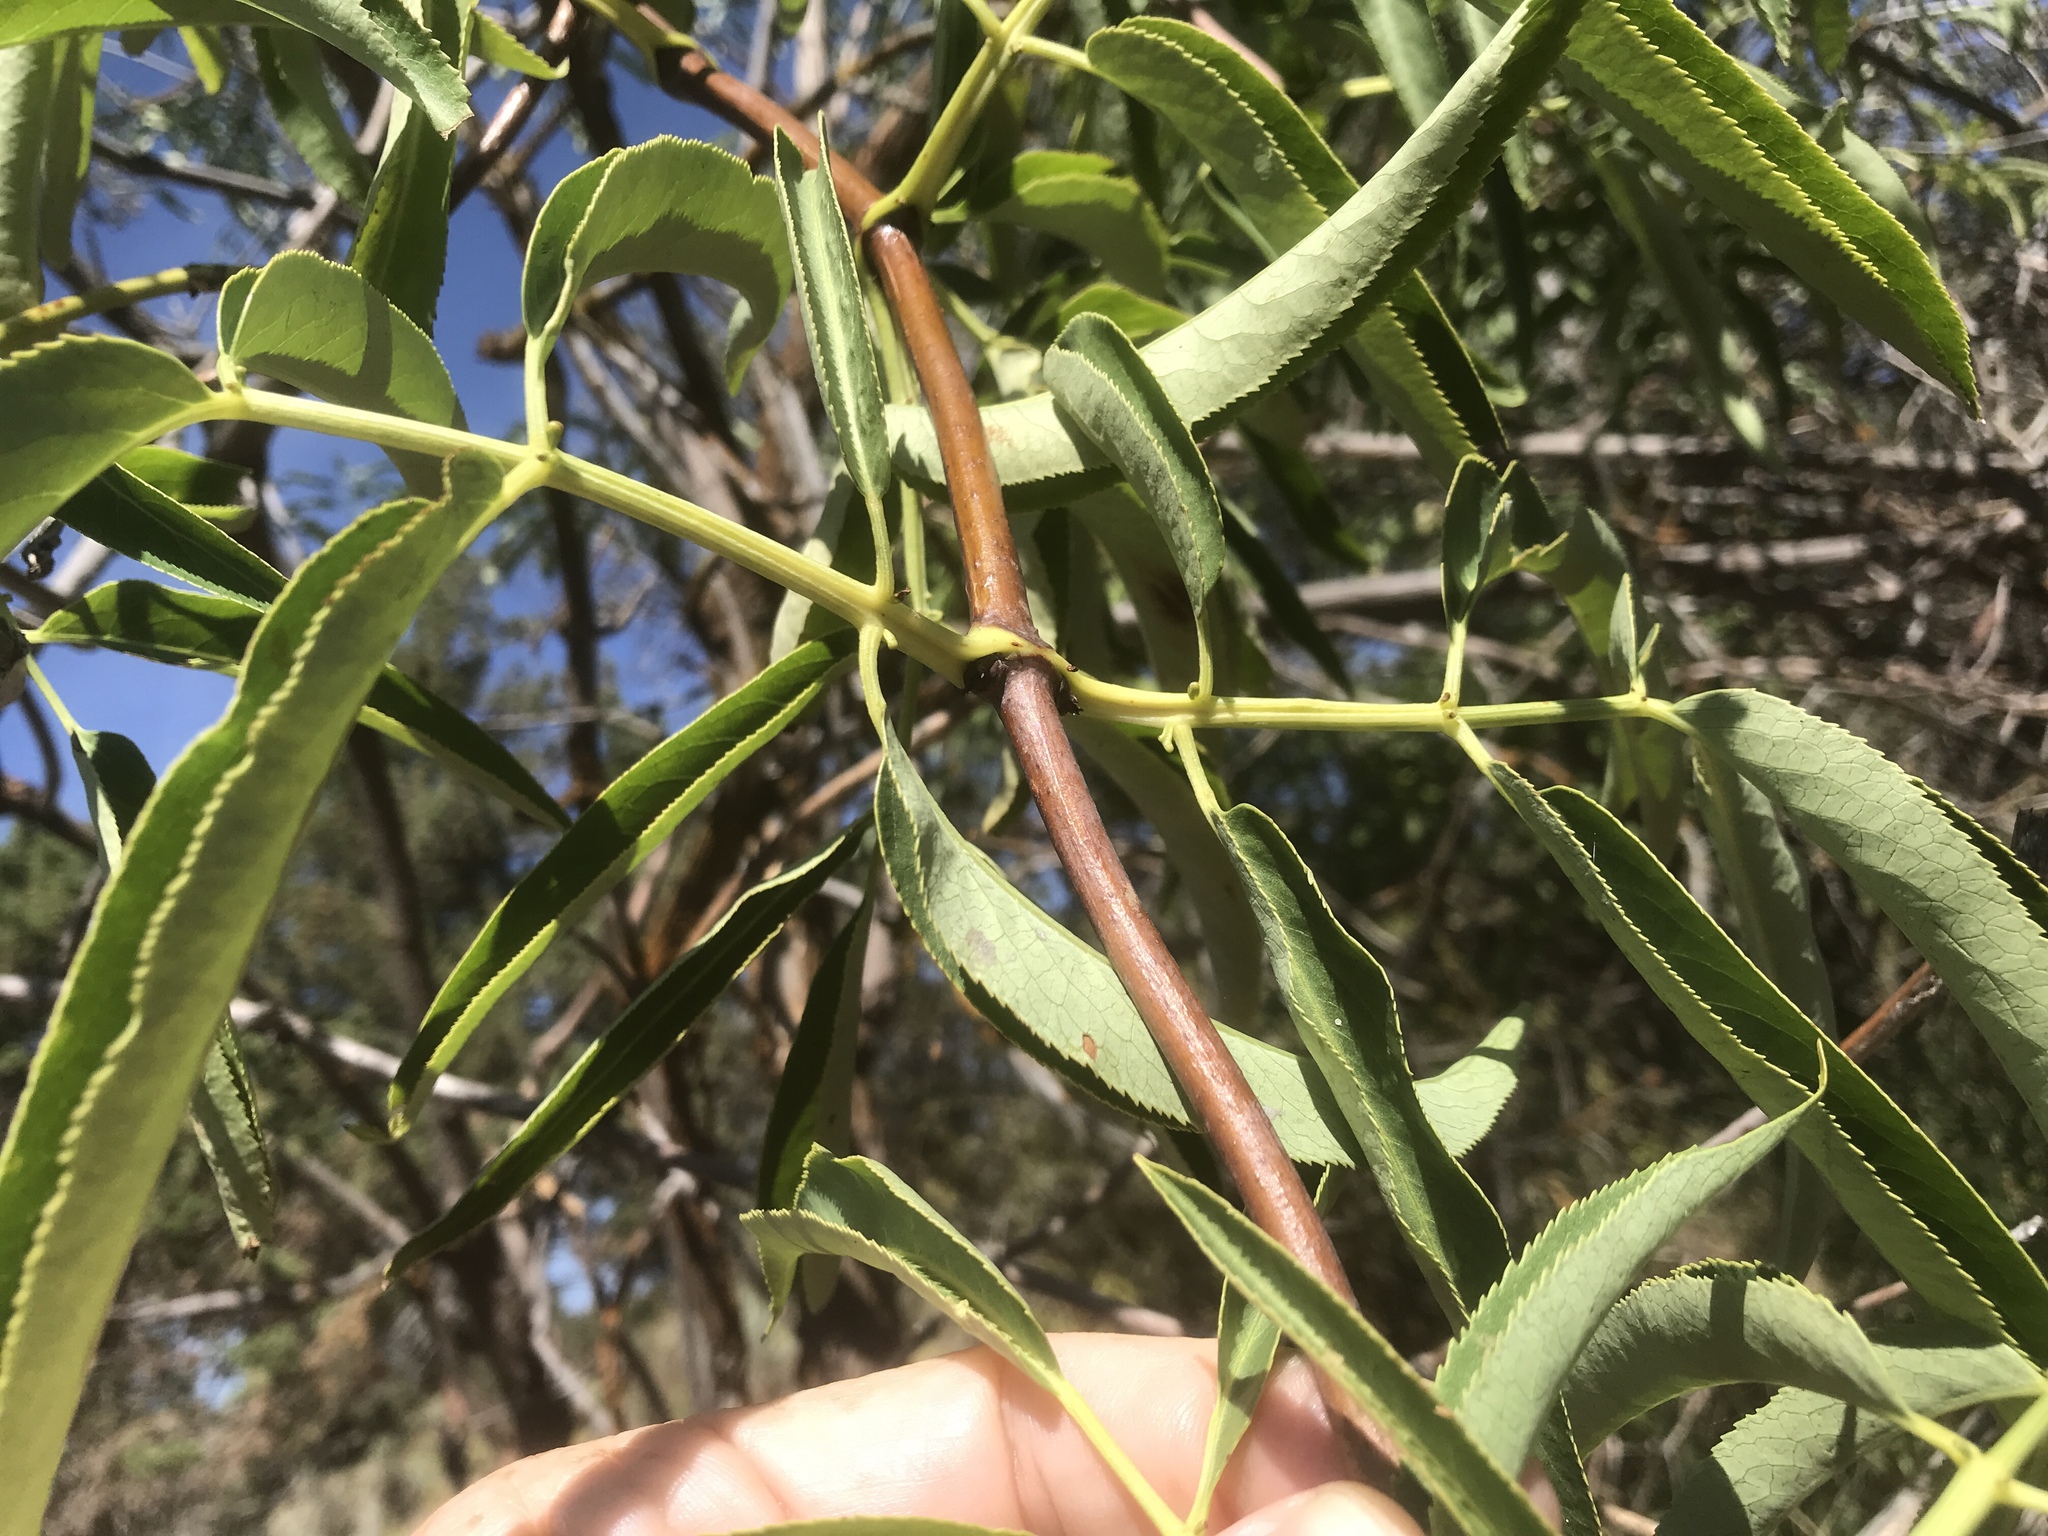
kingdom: Plantae
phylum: Tracheophyta
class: Magnoliopsida
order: Dipsacales
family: Viburnaceae
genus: Sambucus
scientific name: Sambucus cerulea
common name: Blue elder
